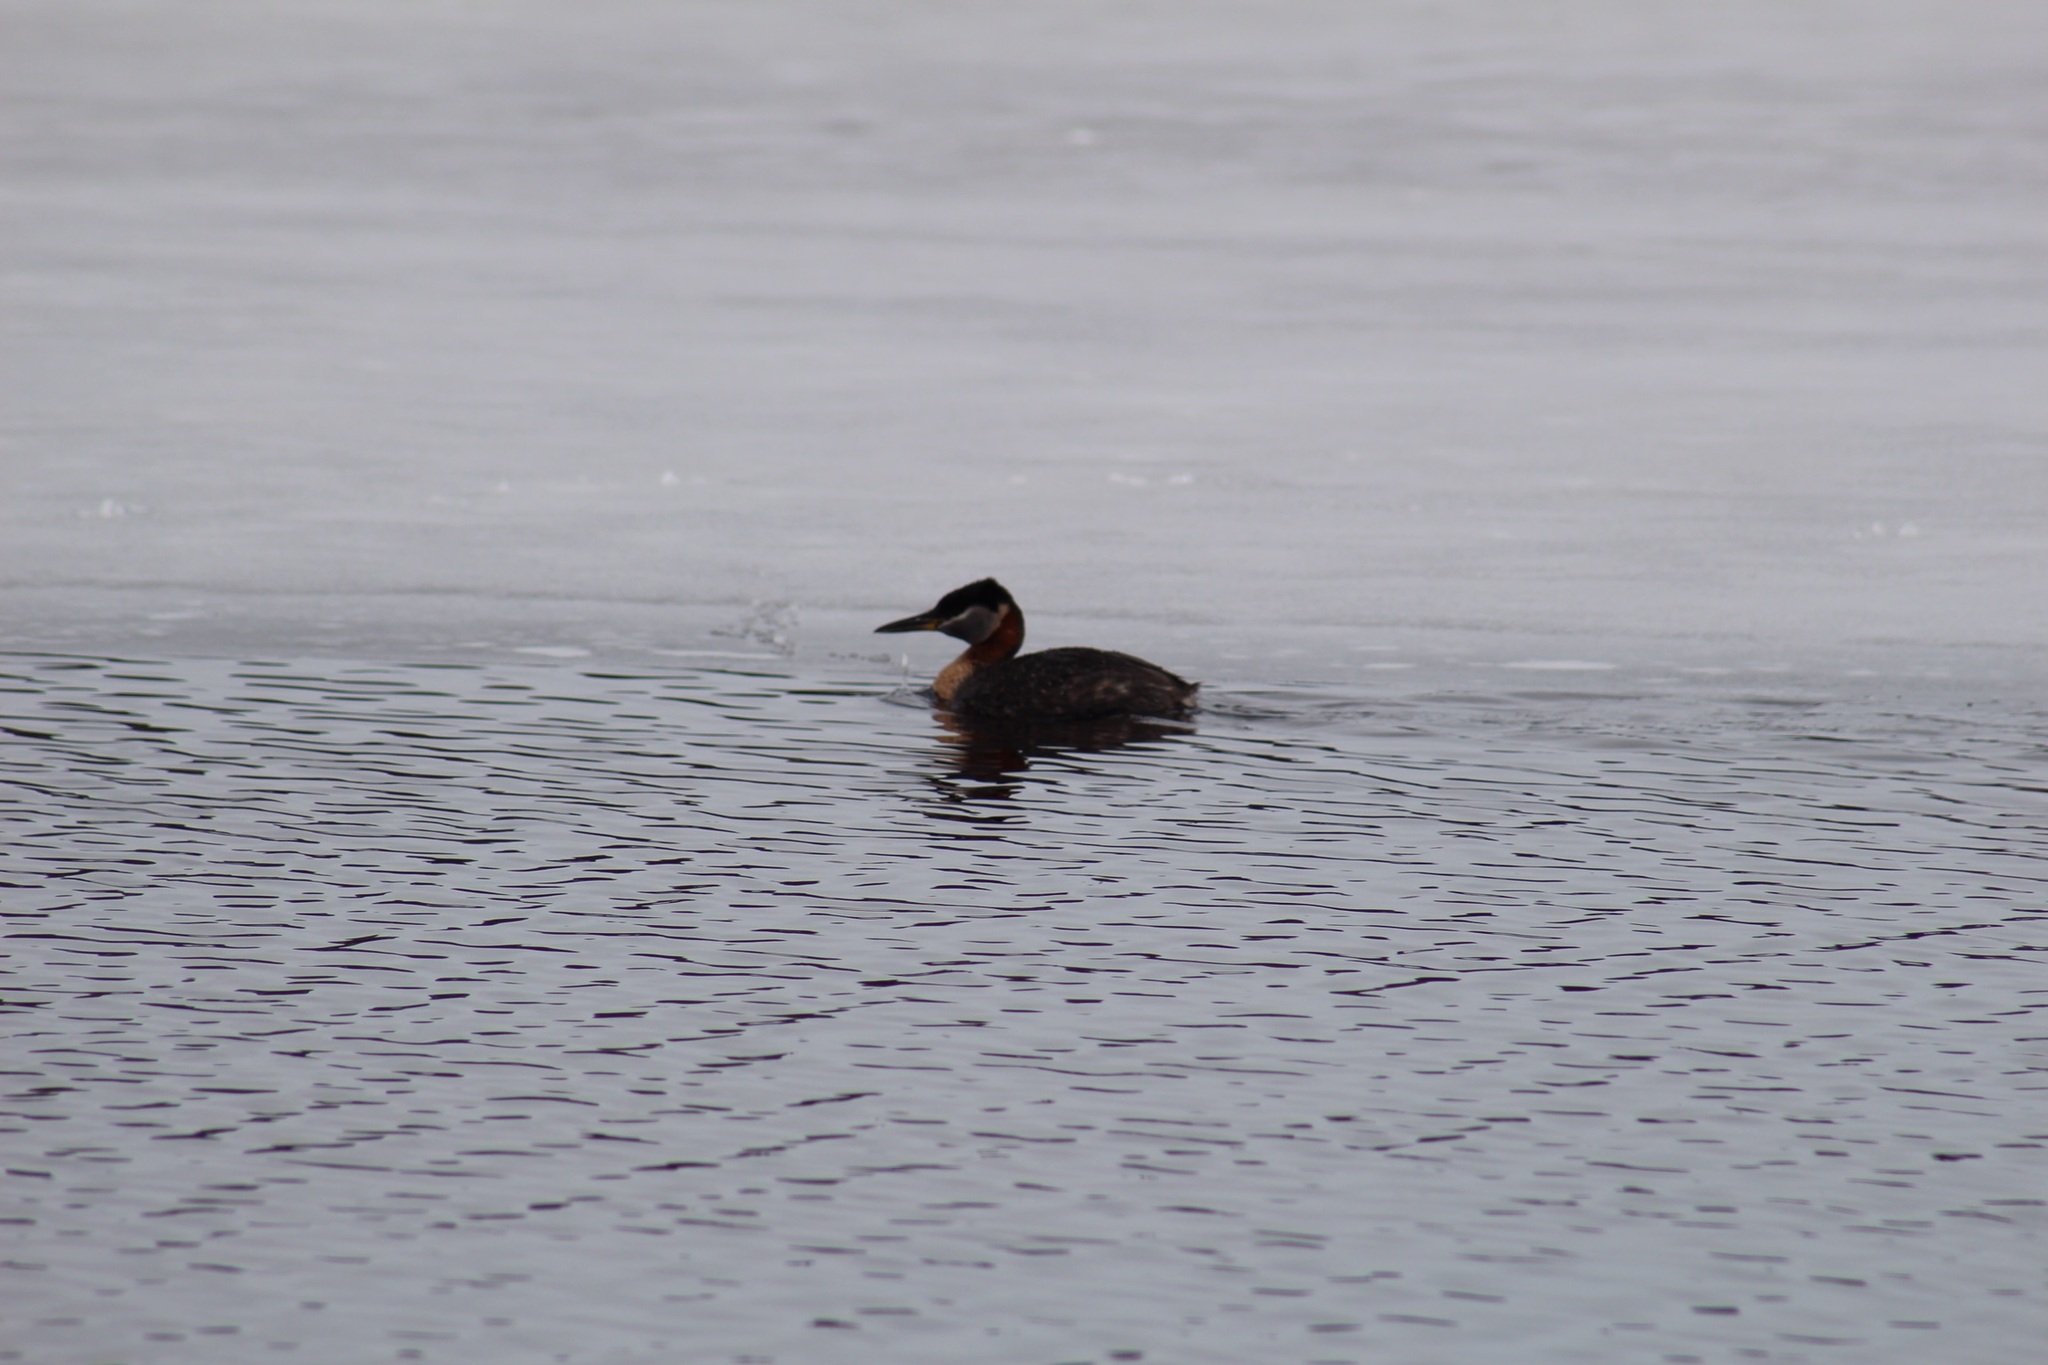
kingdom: Animalia
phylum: Chordata
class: Aves
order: Podicipediformes
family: Podicipedidae
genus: Podiceps
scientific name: Podiceps grisegena
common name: Red-necked grebe
